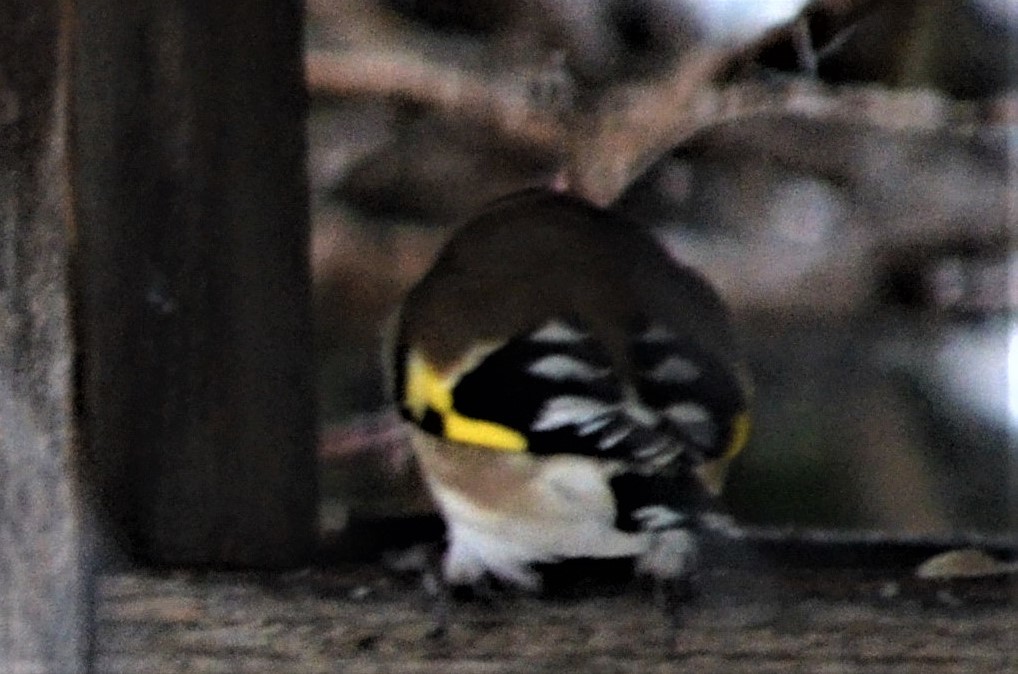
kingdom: Animalia
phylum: Chordata
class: Aves
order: Passeriformes
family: Fringillidae
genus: Carduelis
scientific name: Carduelis carduelis
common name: European goldfinch
